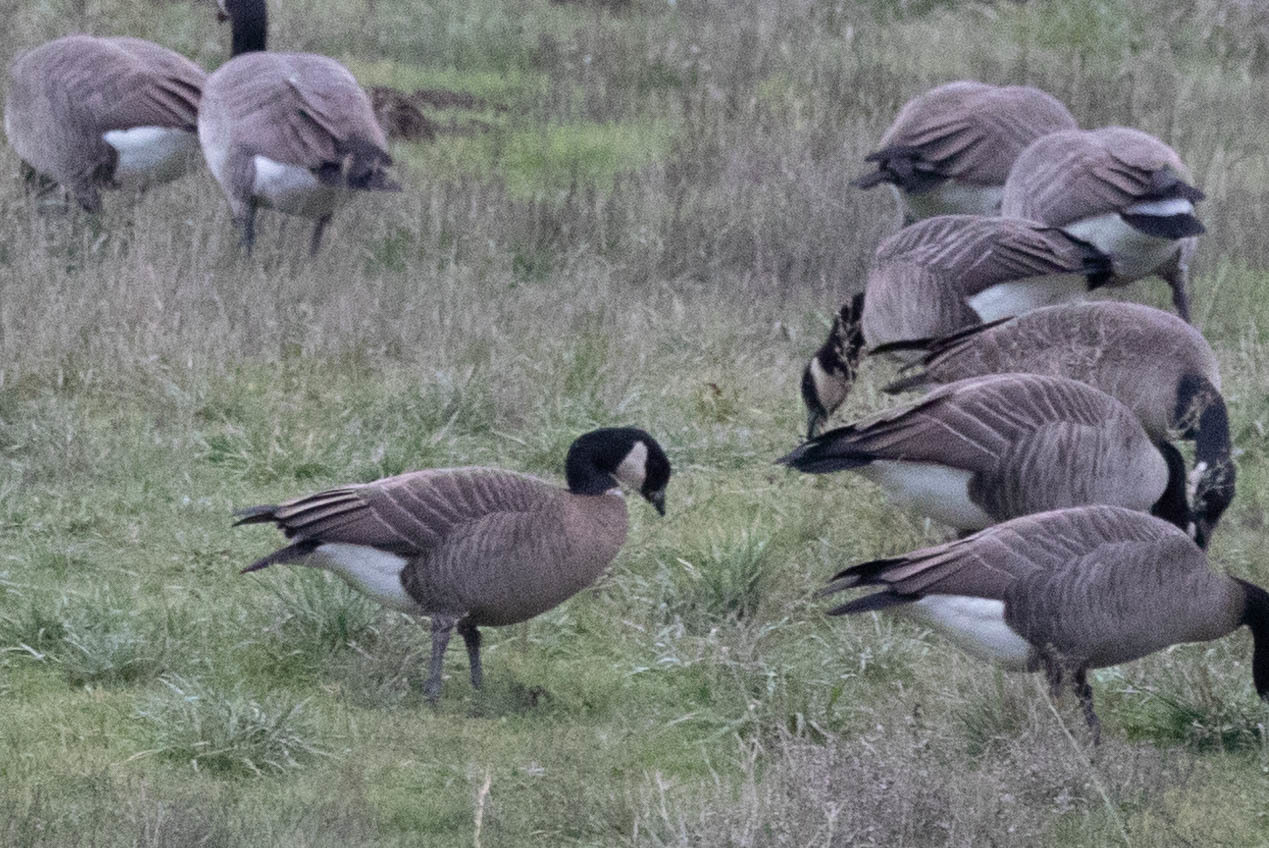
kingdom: Animalia
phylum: Chordata
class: Aves
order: Anseriformes
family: Anatidae
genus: Branta
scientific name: Branta hutchinsii
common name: Cackling goose
